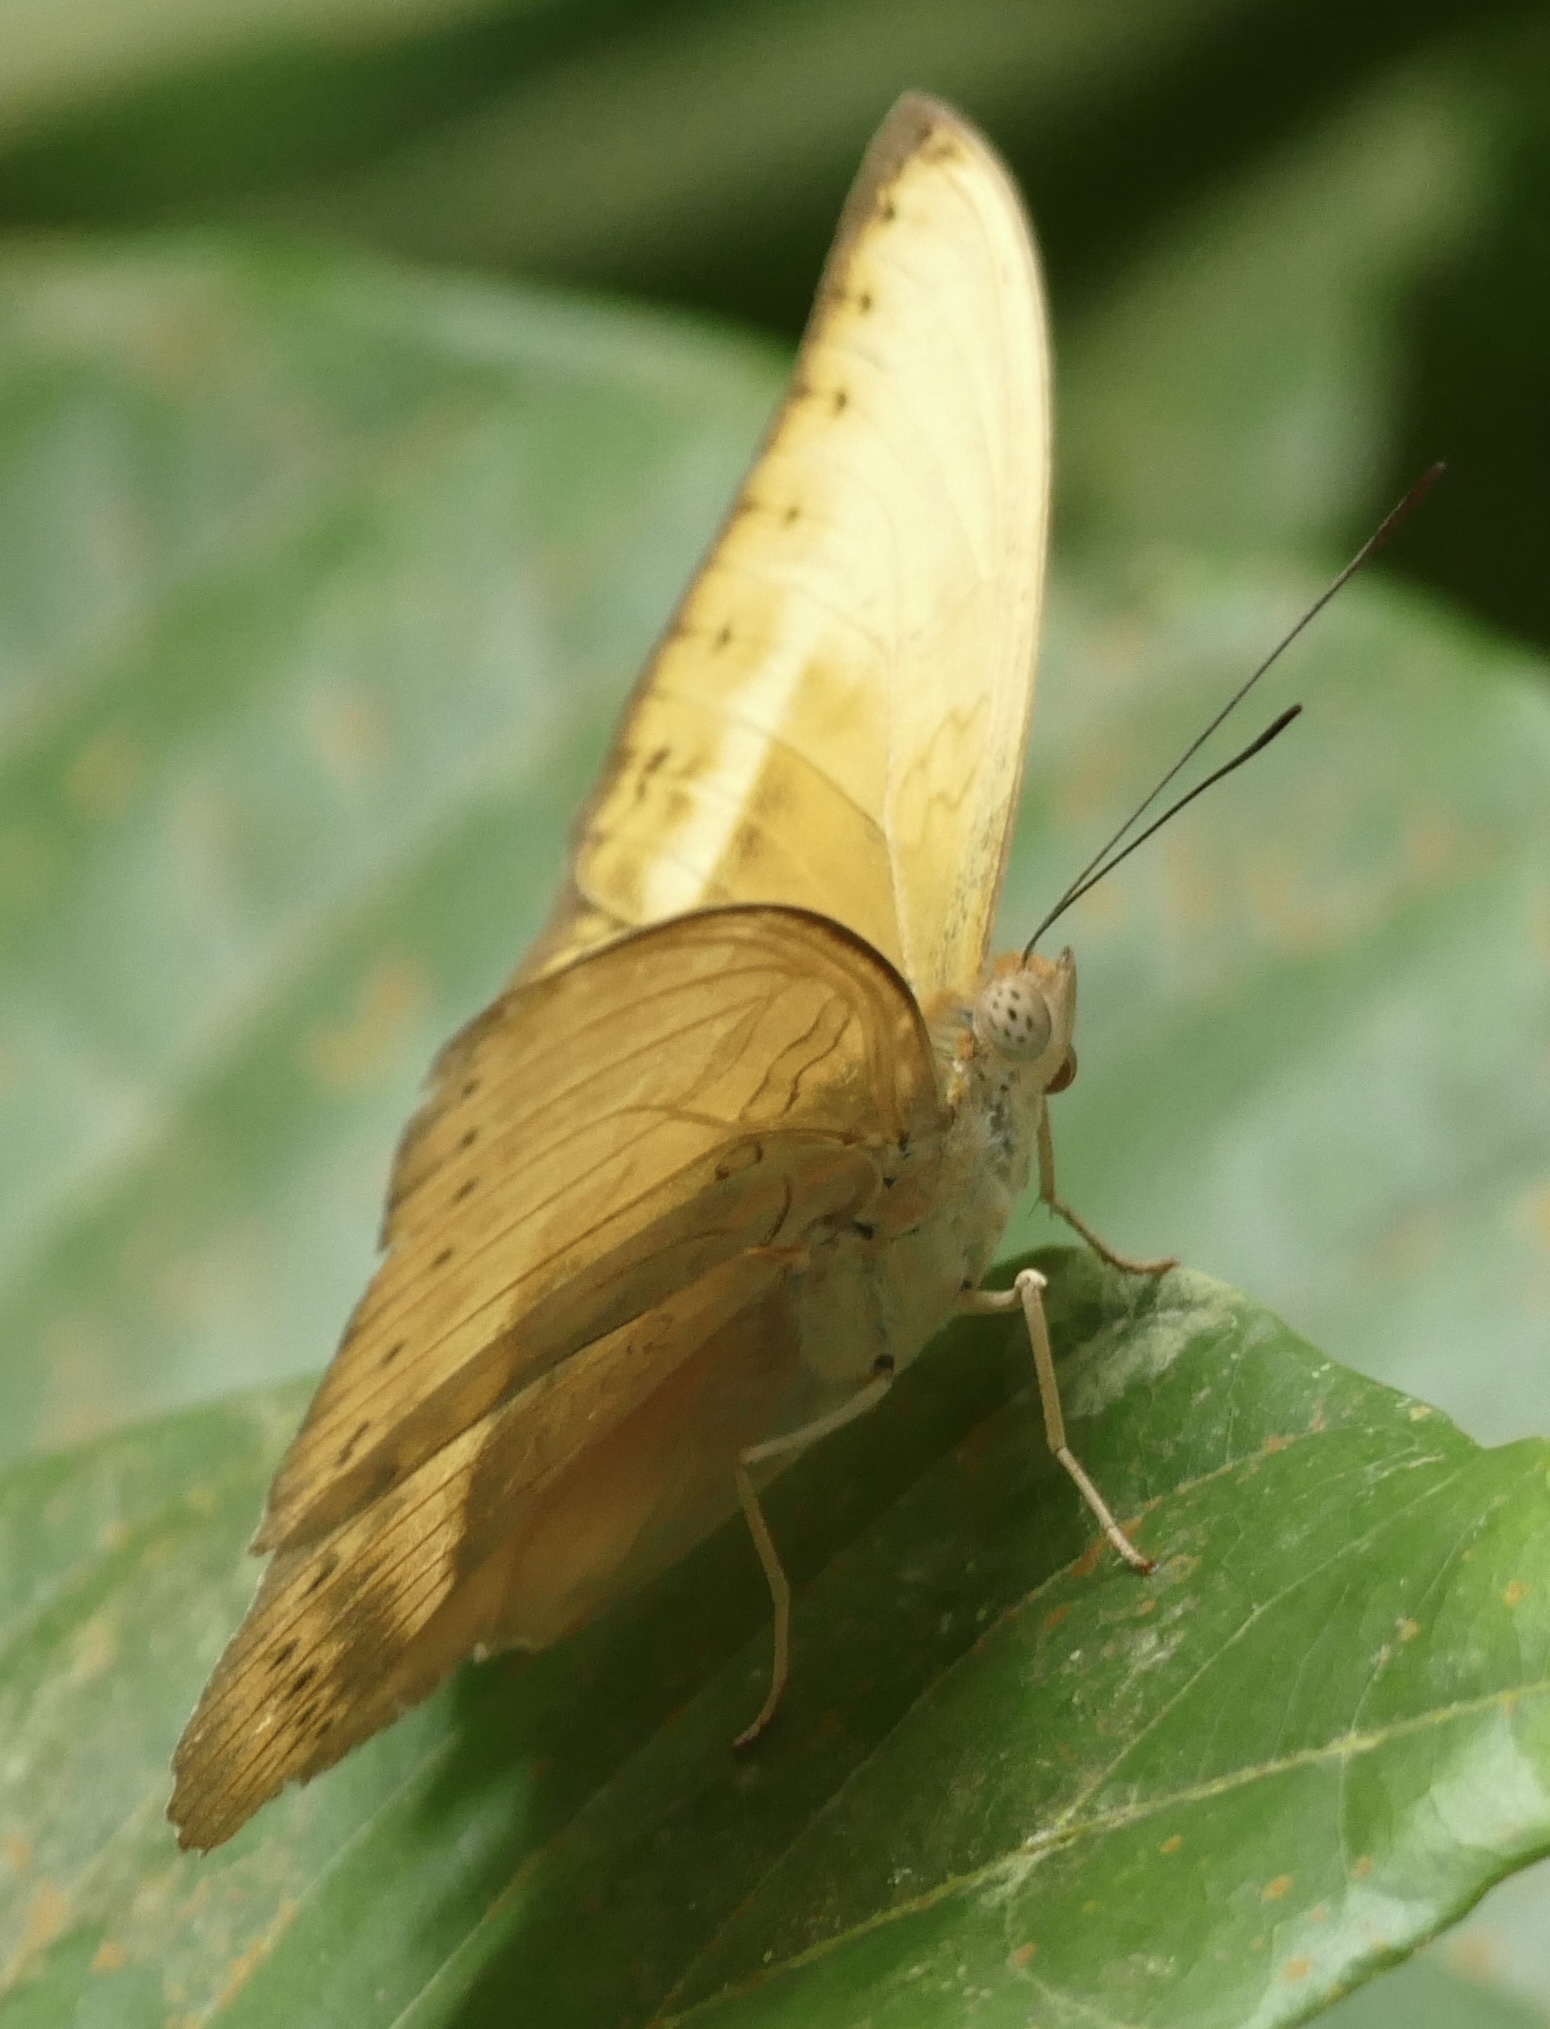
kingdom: Animalia
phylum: Arthropoda
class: Insecta
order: Lepidoptera
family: Nymphalidae
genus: Cymothoe
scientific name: Cymothoe egesta
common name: Common yellow glider
